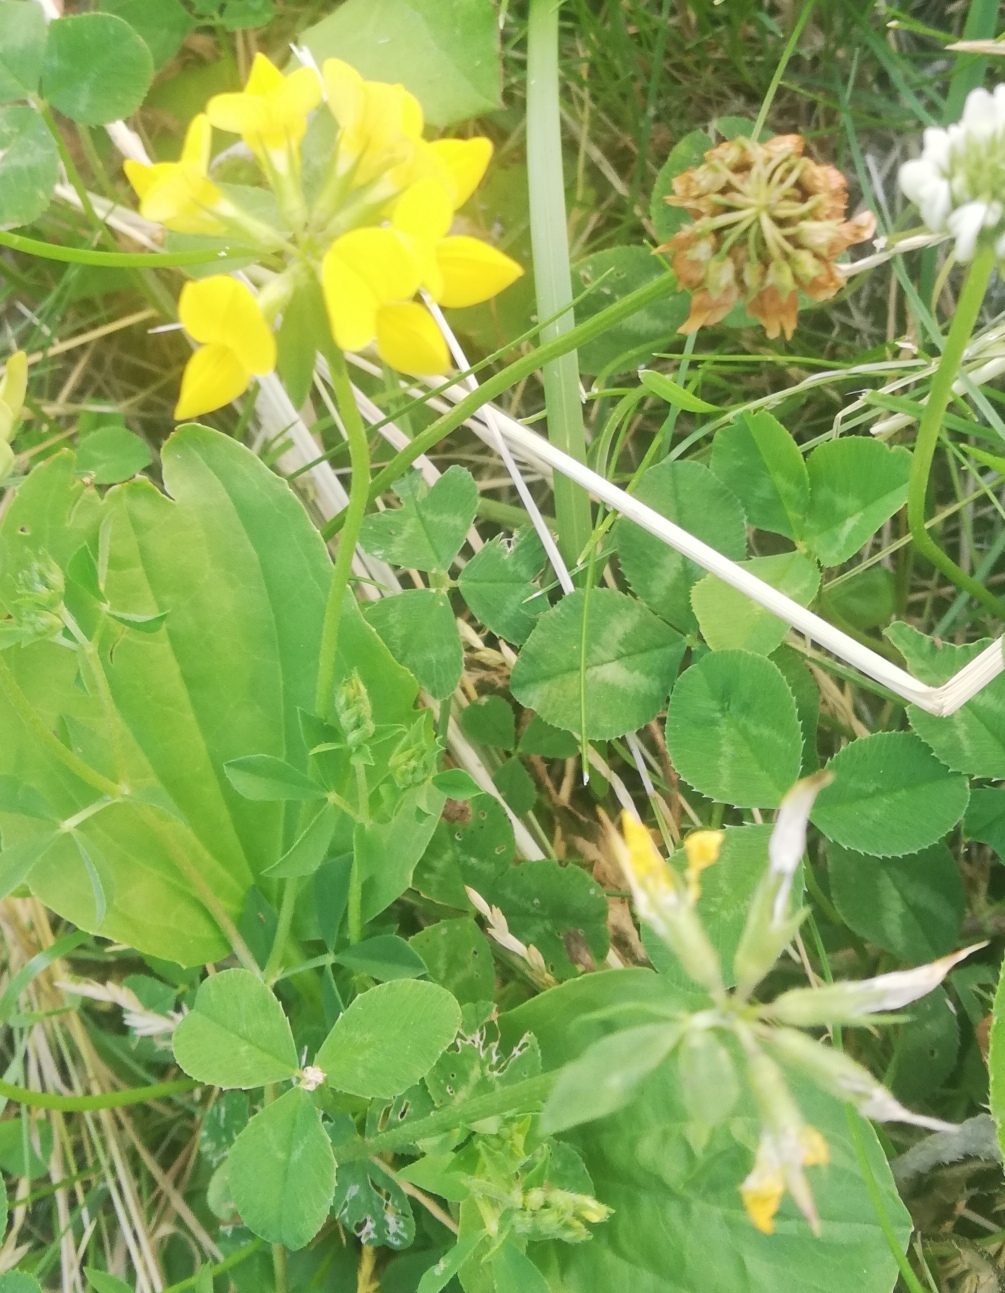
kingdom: Plantae
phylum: Tracheophyta
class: Magnoliopsida
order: Fabales
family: Fabaceae
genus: Lotus
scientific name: Lotus corniculatus
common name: Common bird's-foot-trefoil
